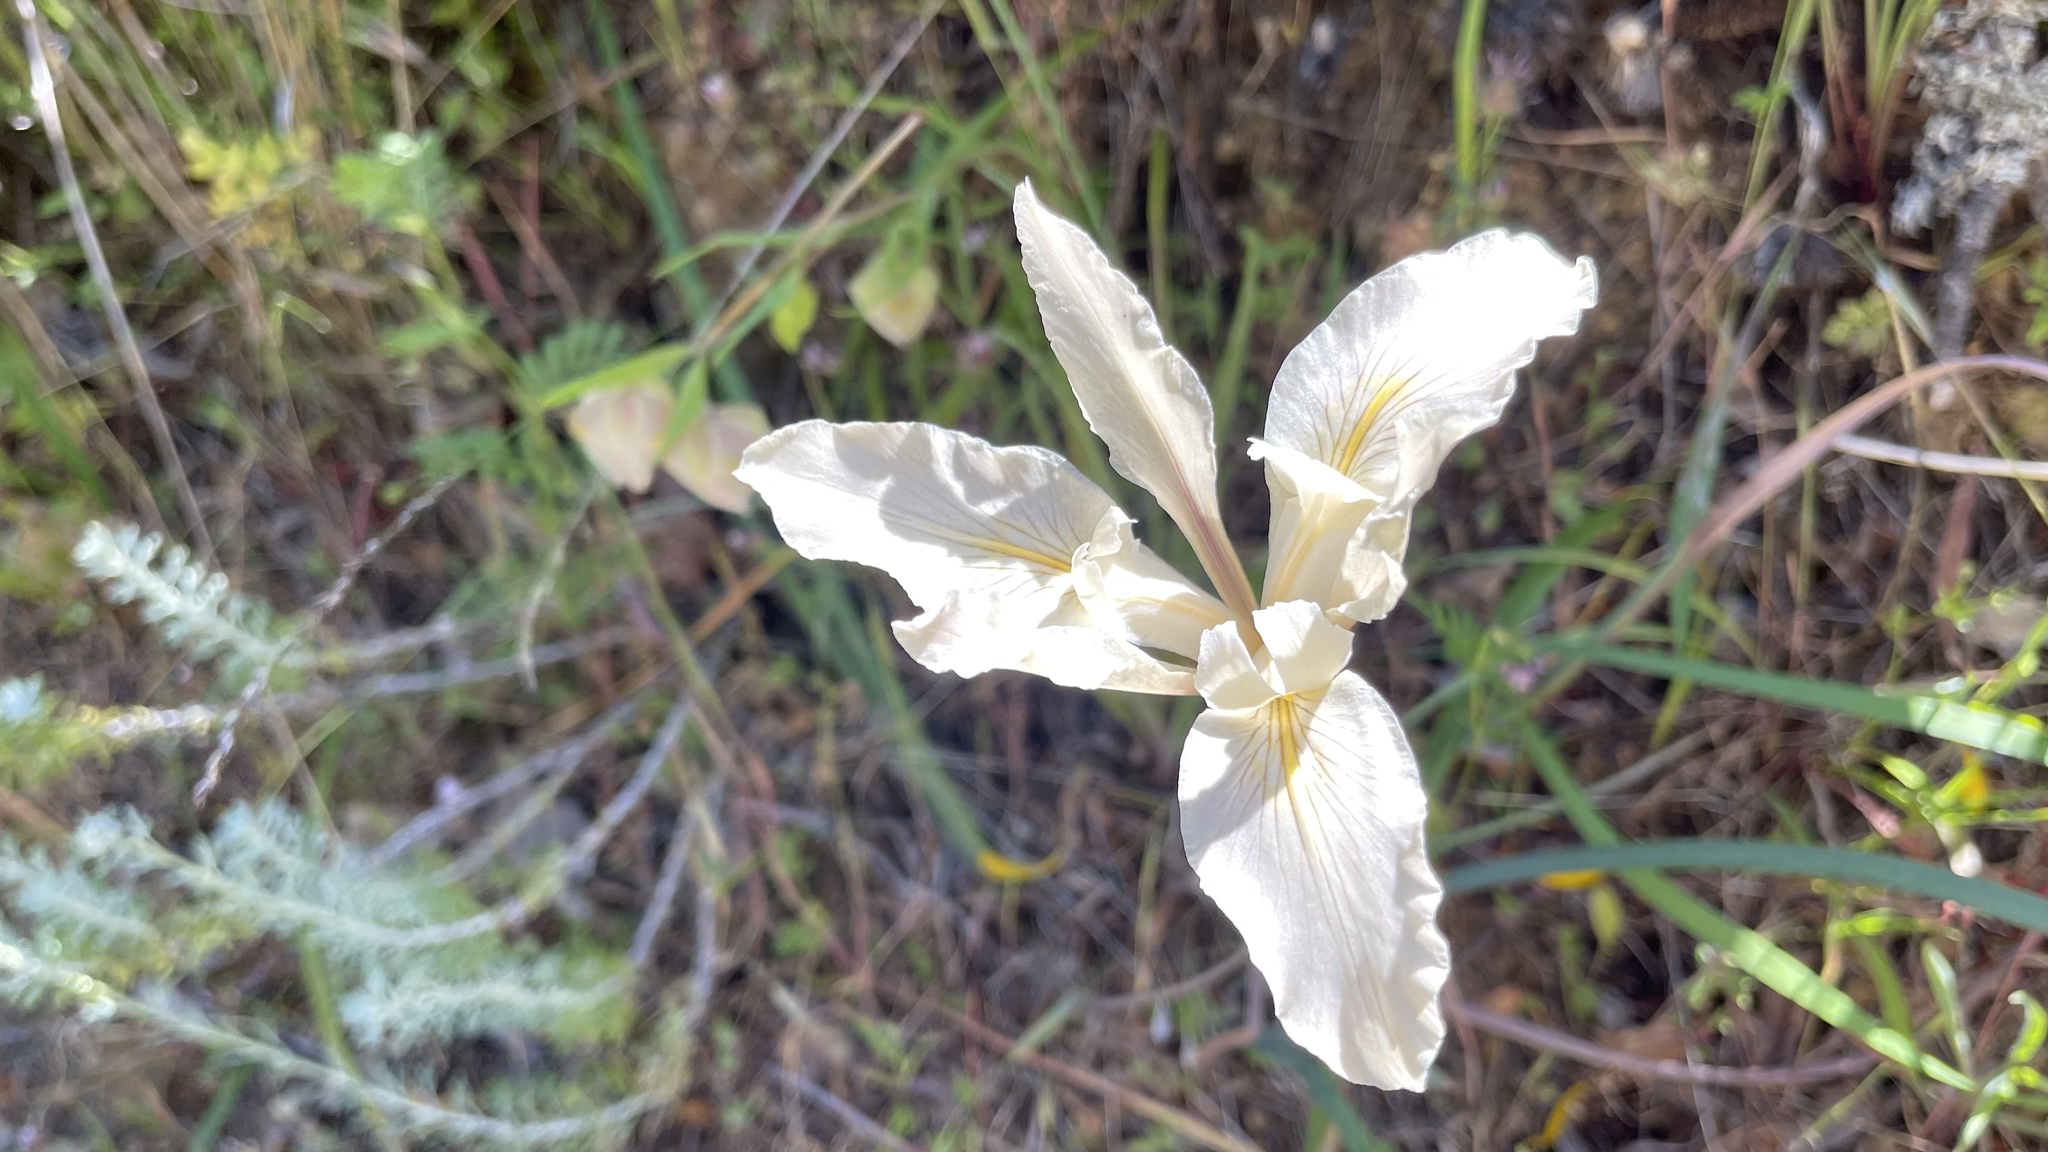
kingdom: Plantae
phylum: Tracheophyta
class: Liliopsida
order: Asparagales
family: Iridaceae
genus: Iris
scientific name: Iris fernaldii
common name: Fernald's iris
